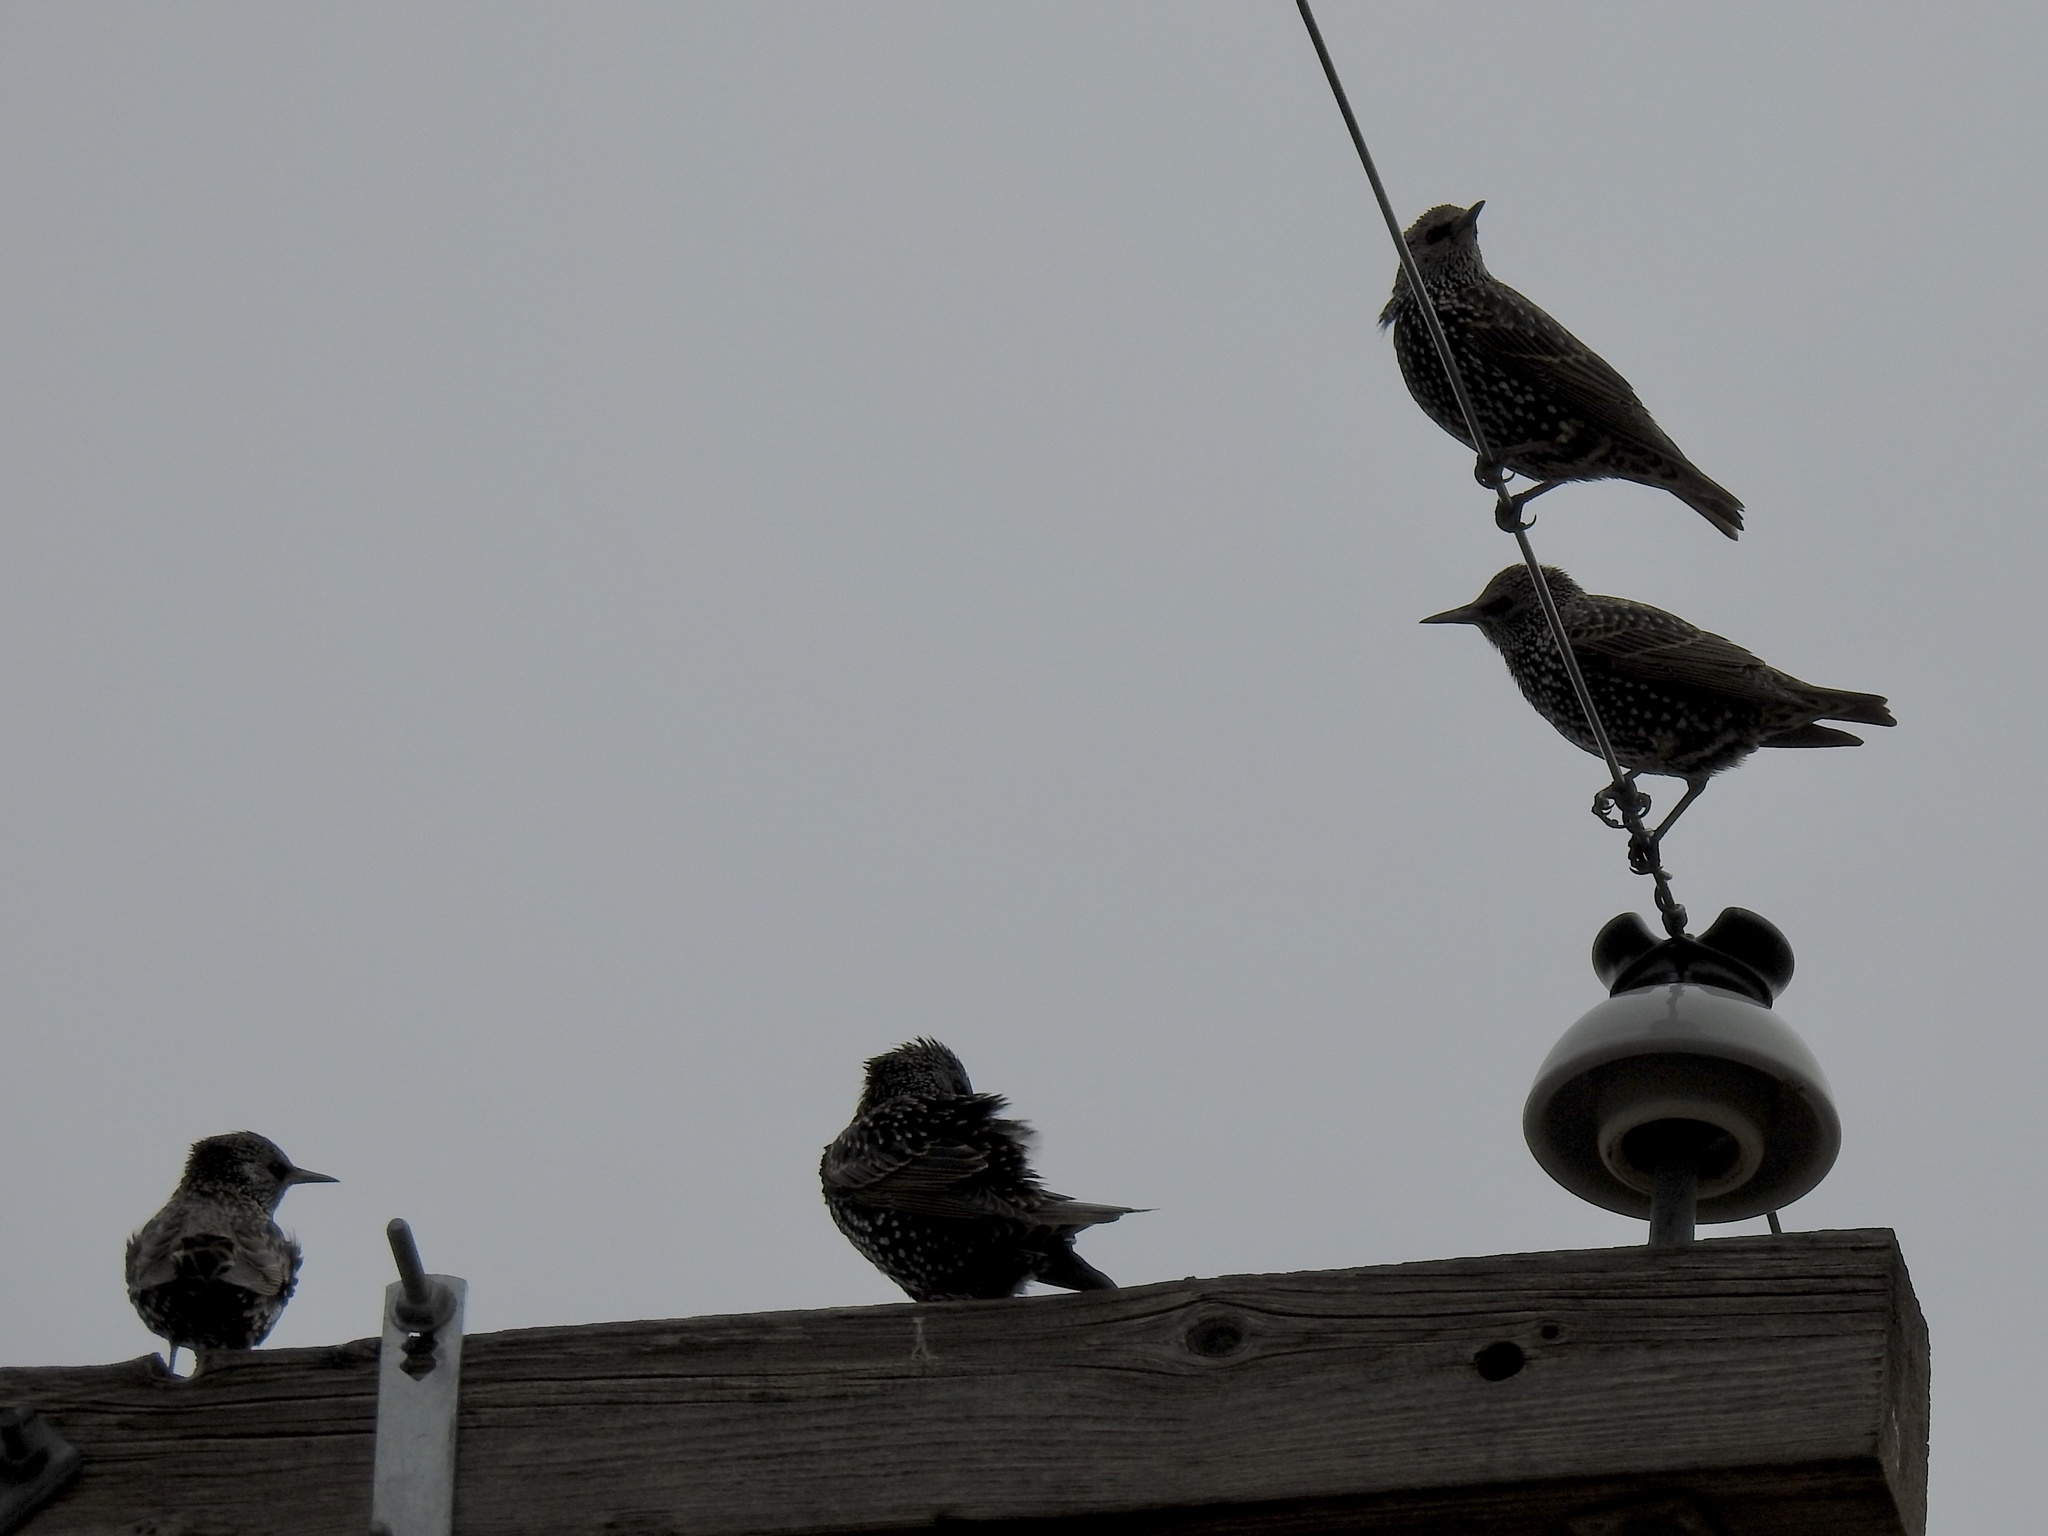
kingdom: Animalia
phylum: Chordata
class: Aves
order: Passeriformes
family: Sturnidae
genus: Sturnus
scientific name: Sturnus vulgaris
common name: Common starling
